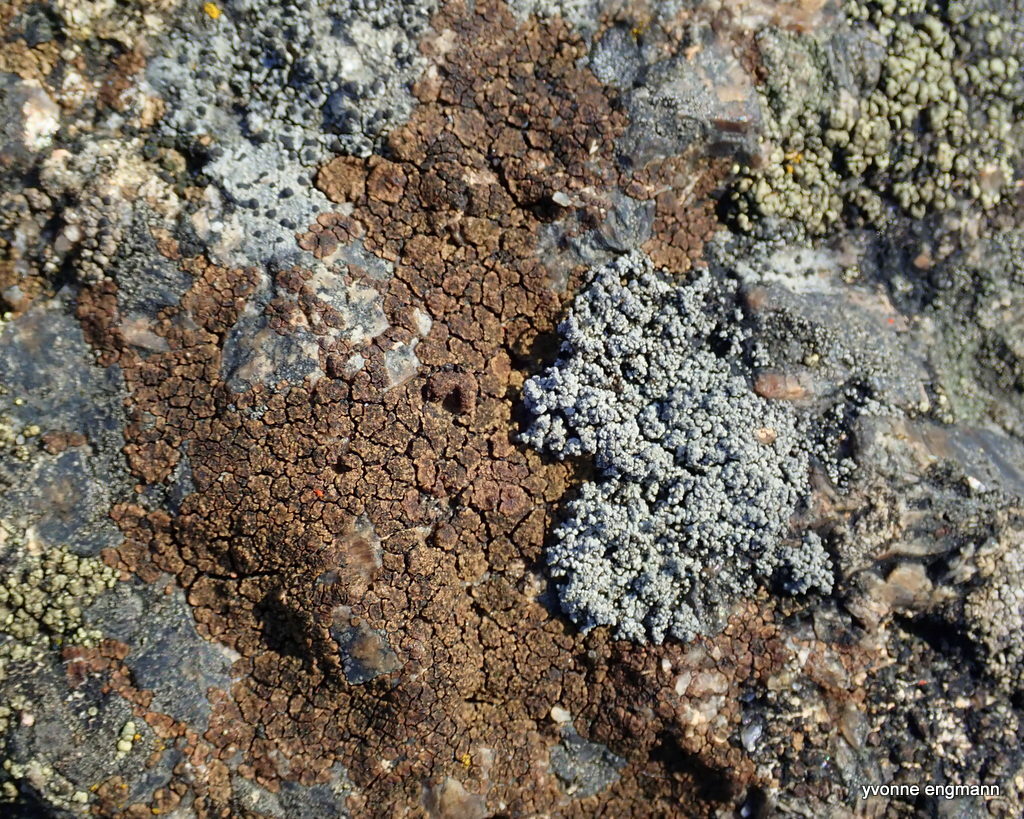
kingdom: Fungi
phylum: Ascomycota
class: Lecanoromycetes
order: Acarosporales
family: Acarosporaceae
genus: Acarospora
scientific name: Acarospora fuscata
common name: Brown cobblestone lichen
